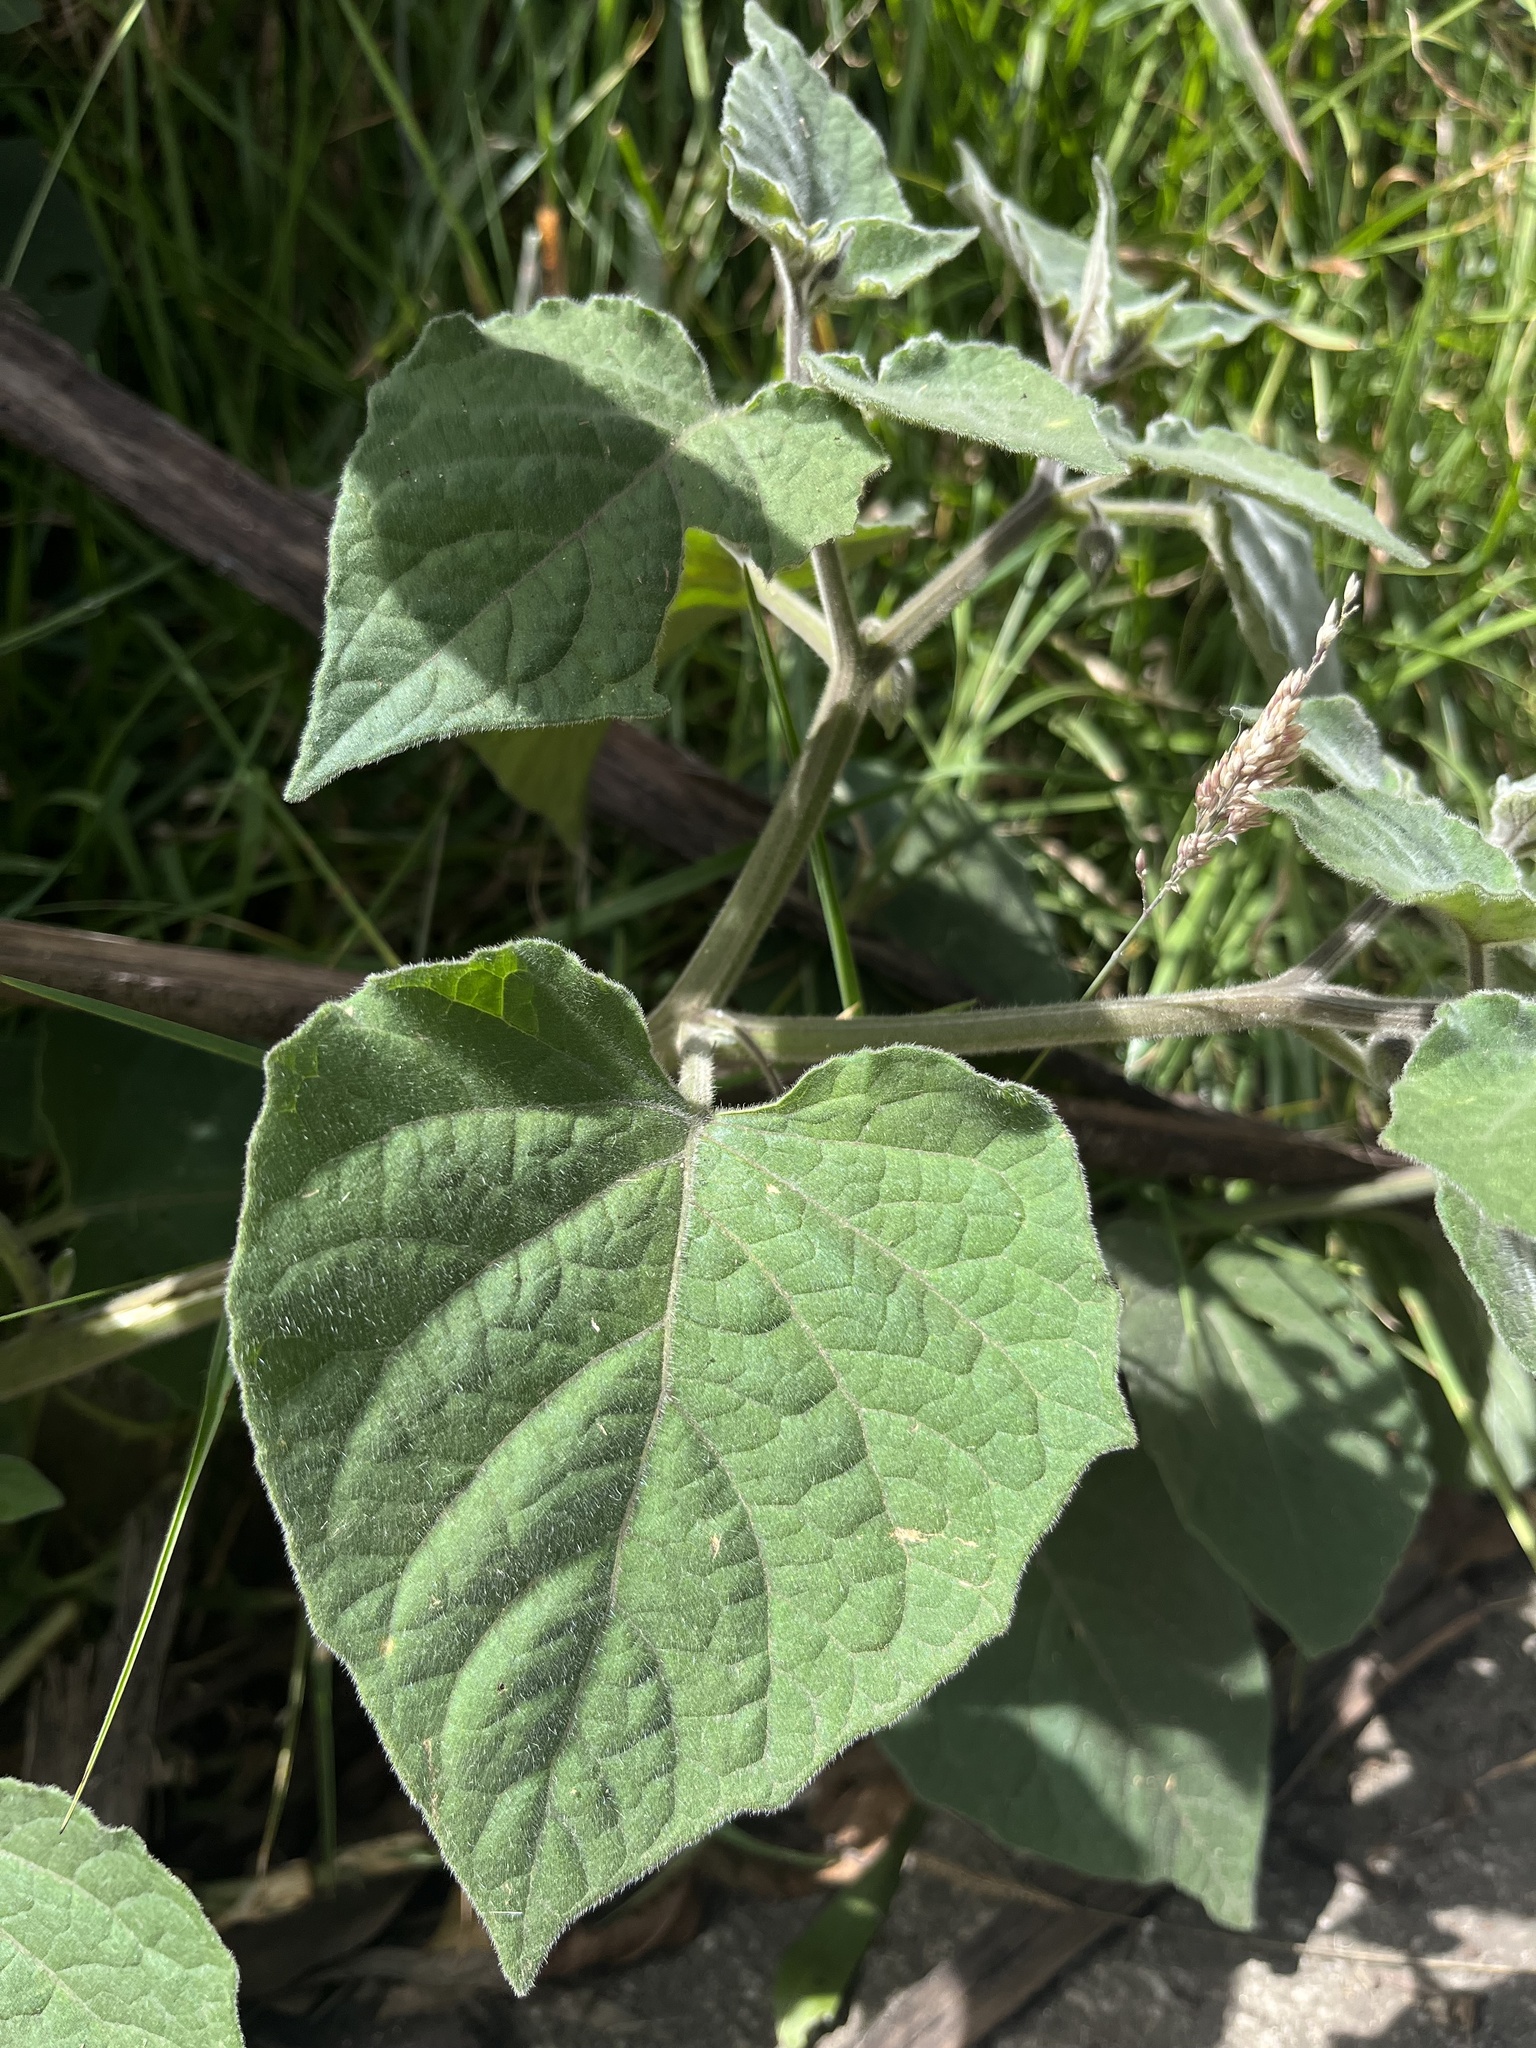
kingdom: Plantae
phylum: Tracheophyta
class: Magnoliopsida
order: Solanales
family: Solanaceae
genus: Physalis
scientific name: Physalis peruviana
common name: Cape-gooseberry
